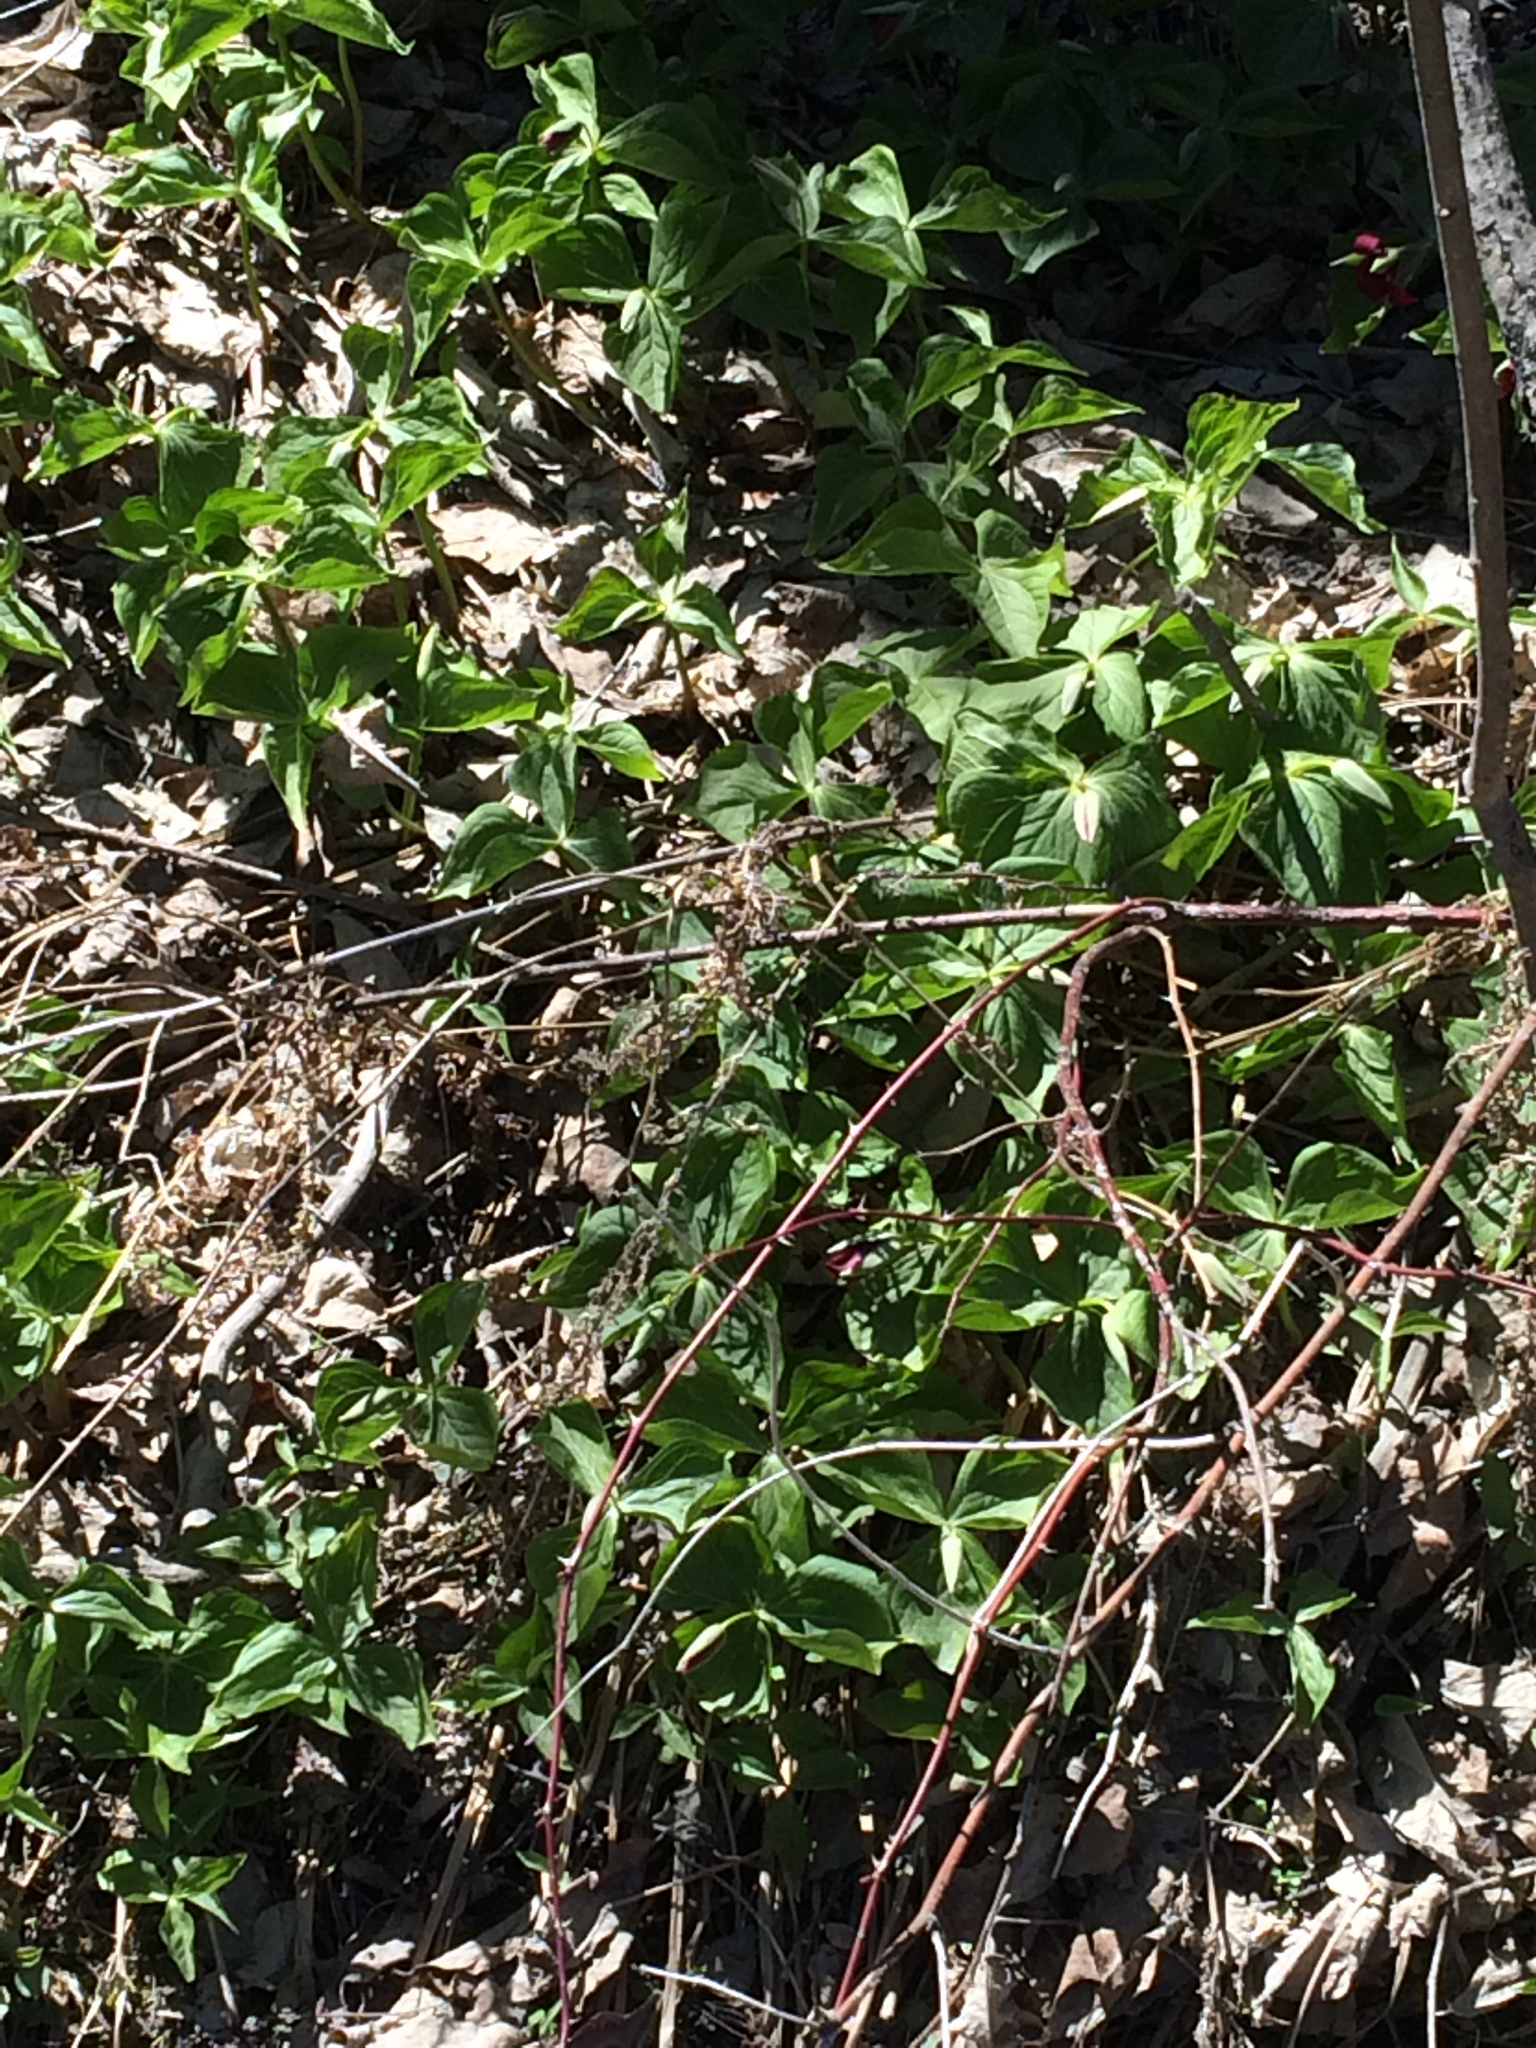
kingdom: Plantae
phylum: Tracheophyta
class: Liliopsida
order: Liliales
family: Melanthiaceae
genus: Trillium
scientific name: Trillium erectum
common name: Purple trillium
